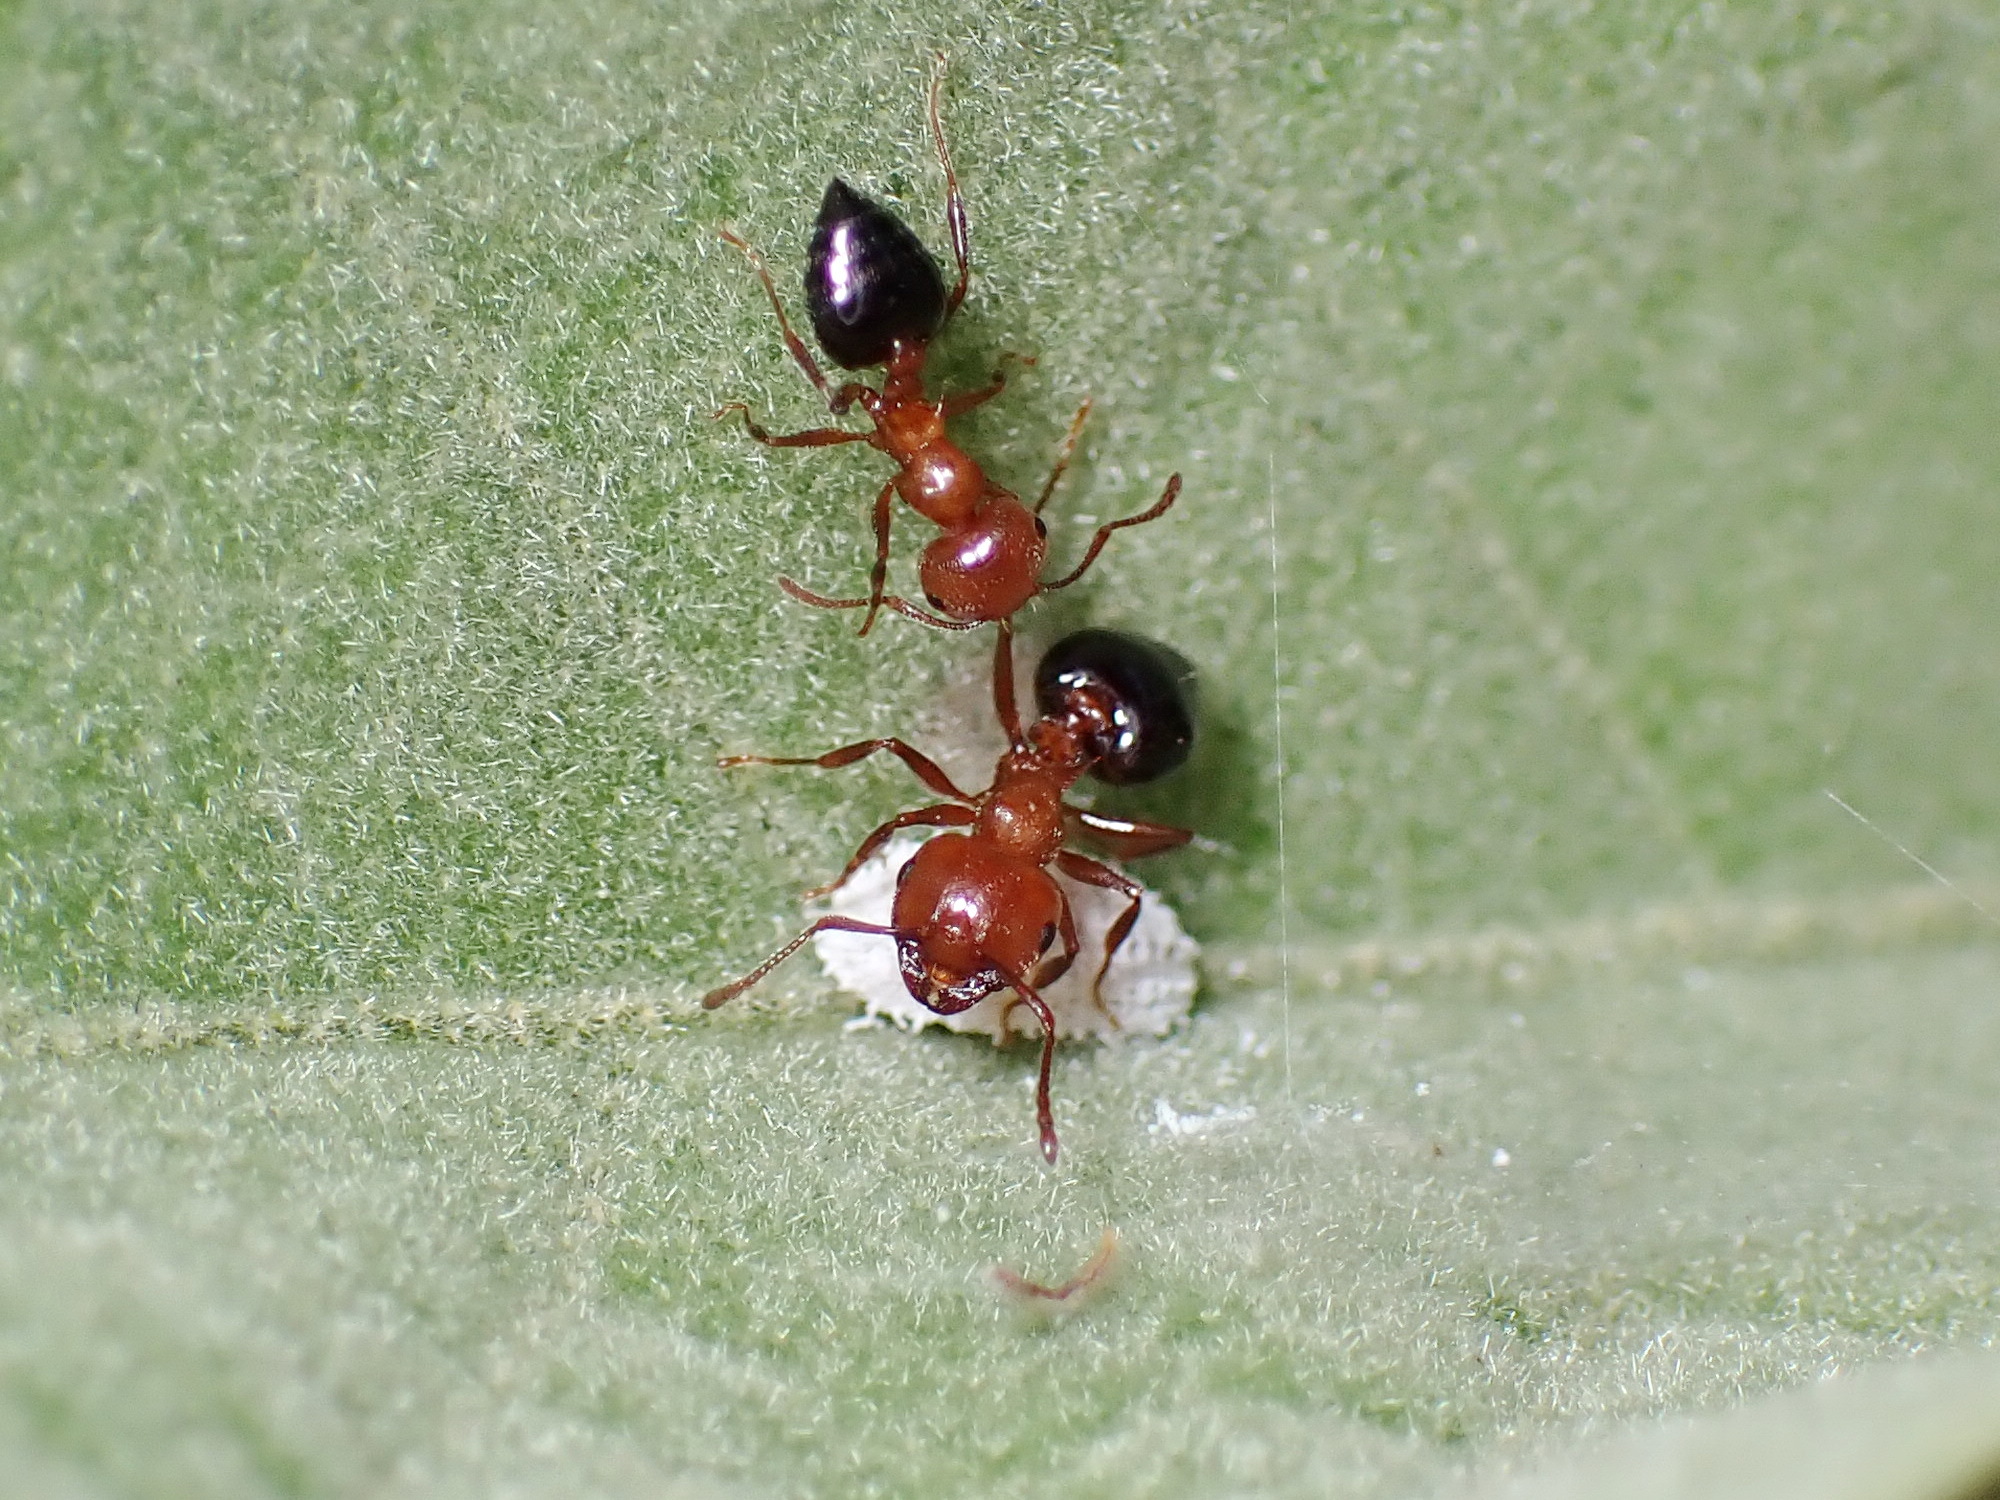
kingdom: Animalia
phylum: Arthropoda
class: Insecta
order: Hymenoptera
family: Formicidae
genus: Crematogaster
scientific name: Crematogaster laeviuscula
